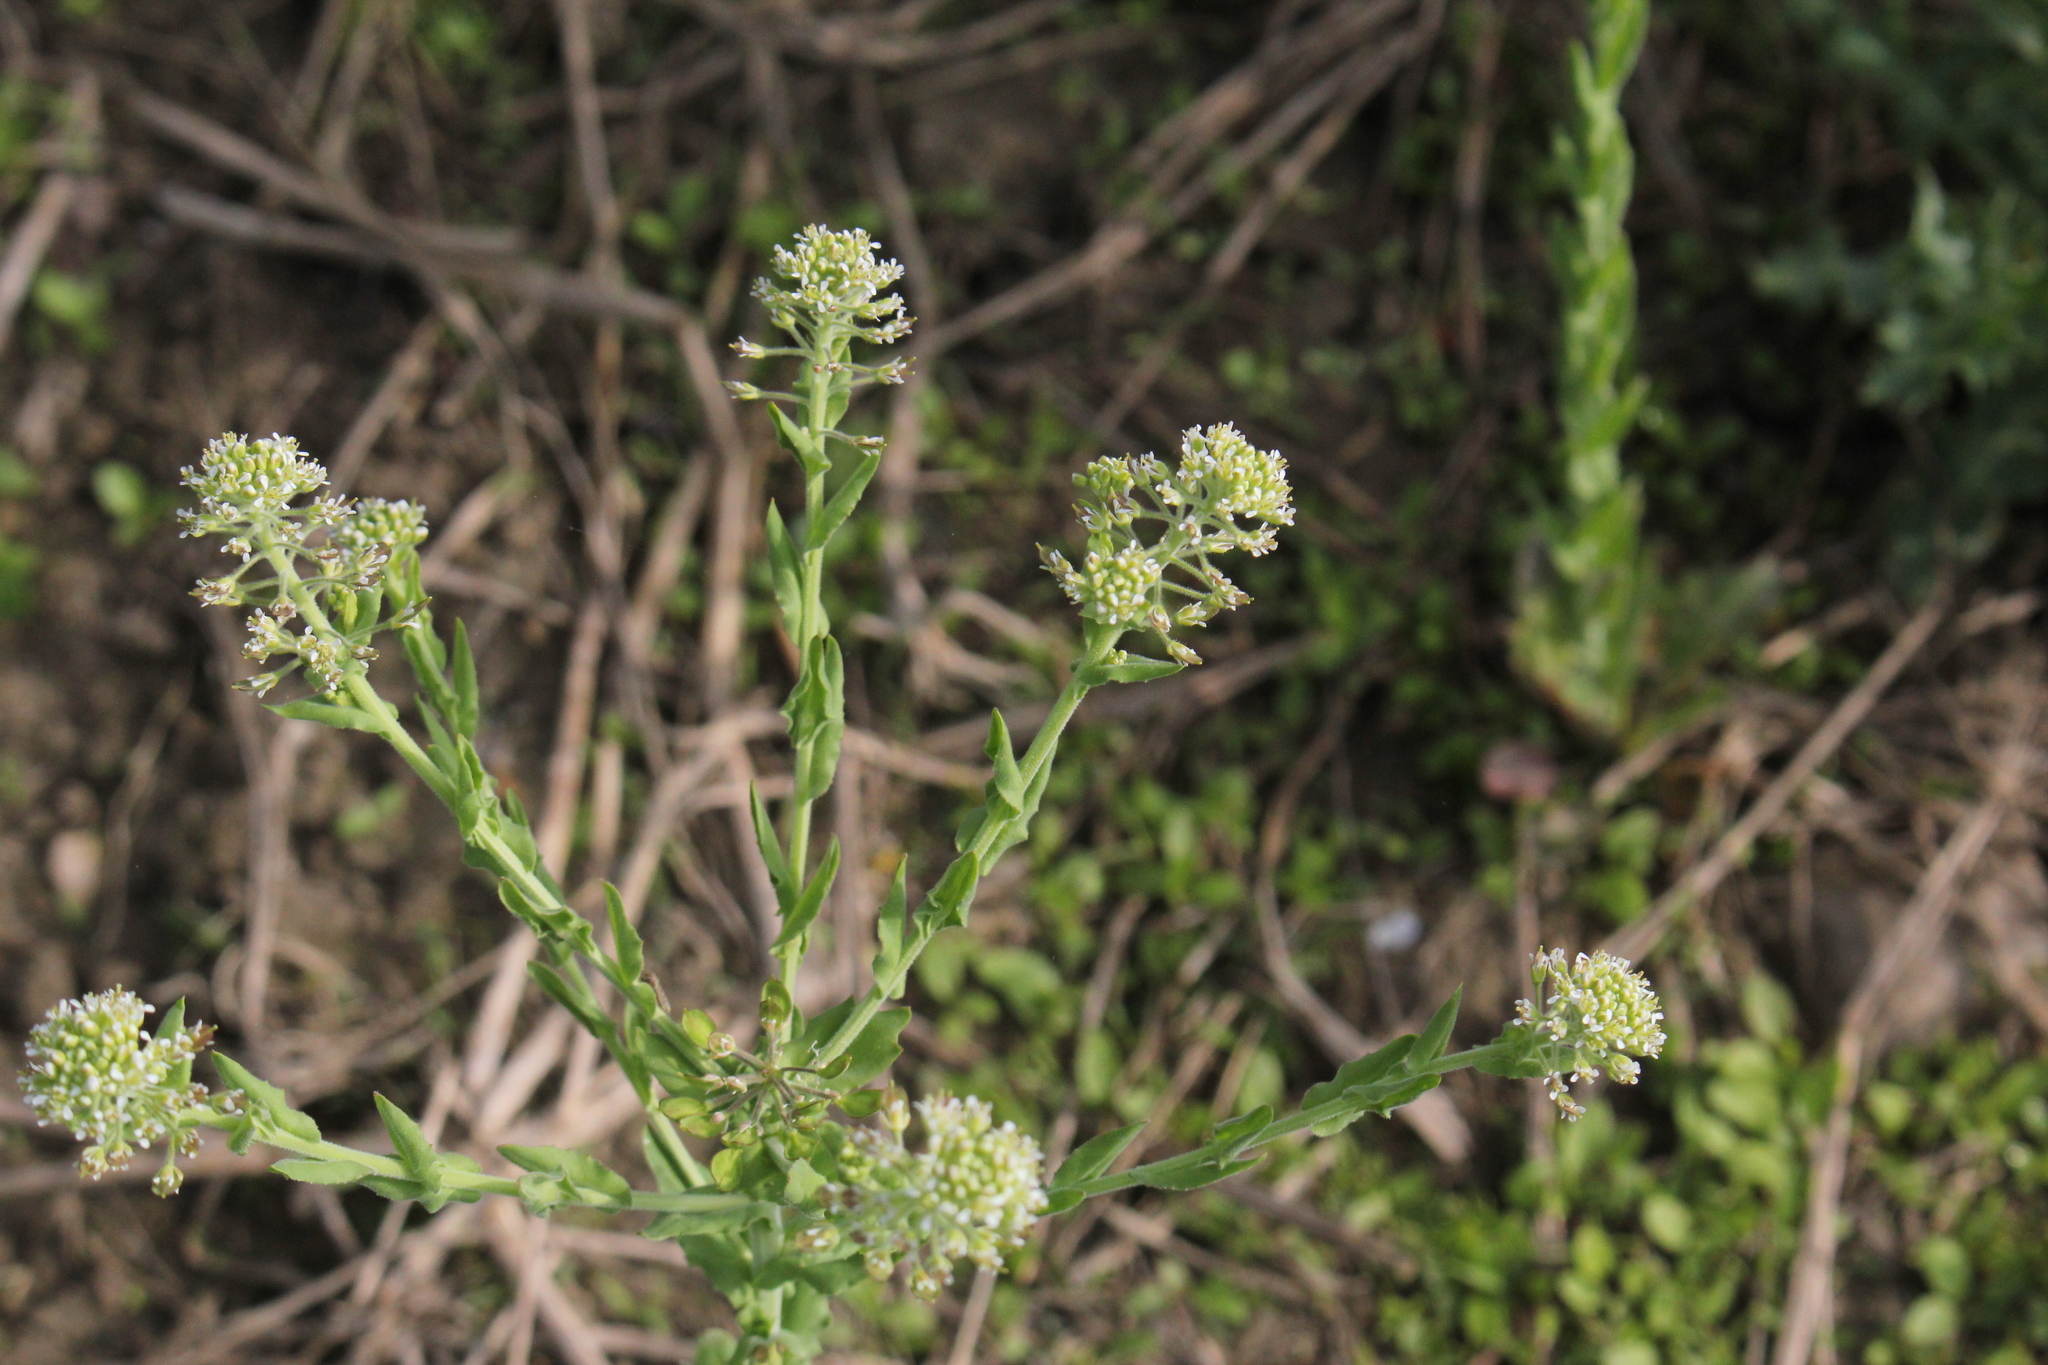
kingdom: Plantae
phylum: Tracheophyta
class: Magnoliopsida
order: Brassicales
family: Brassicaceae
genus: Lepidium
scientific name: Lepidium campestre
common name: Field pepperwort
